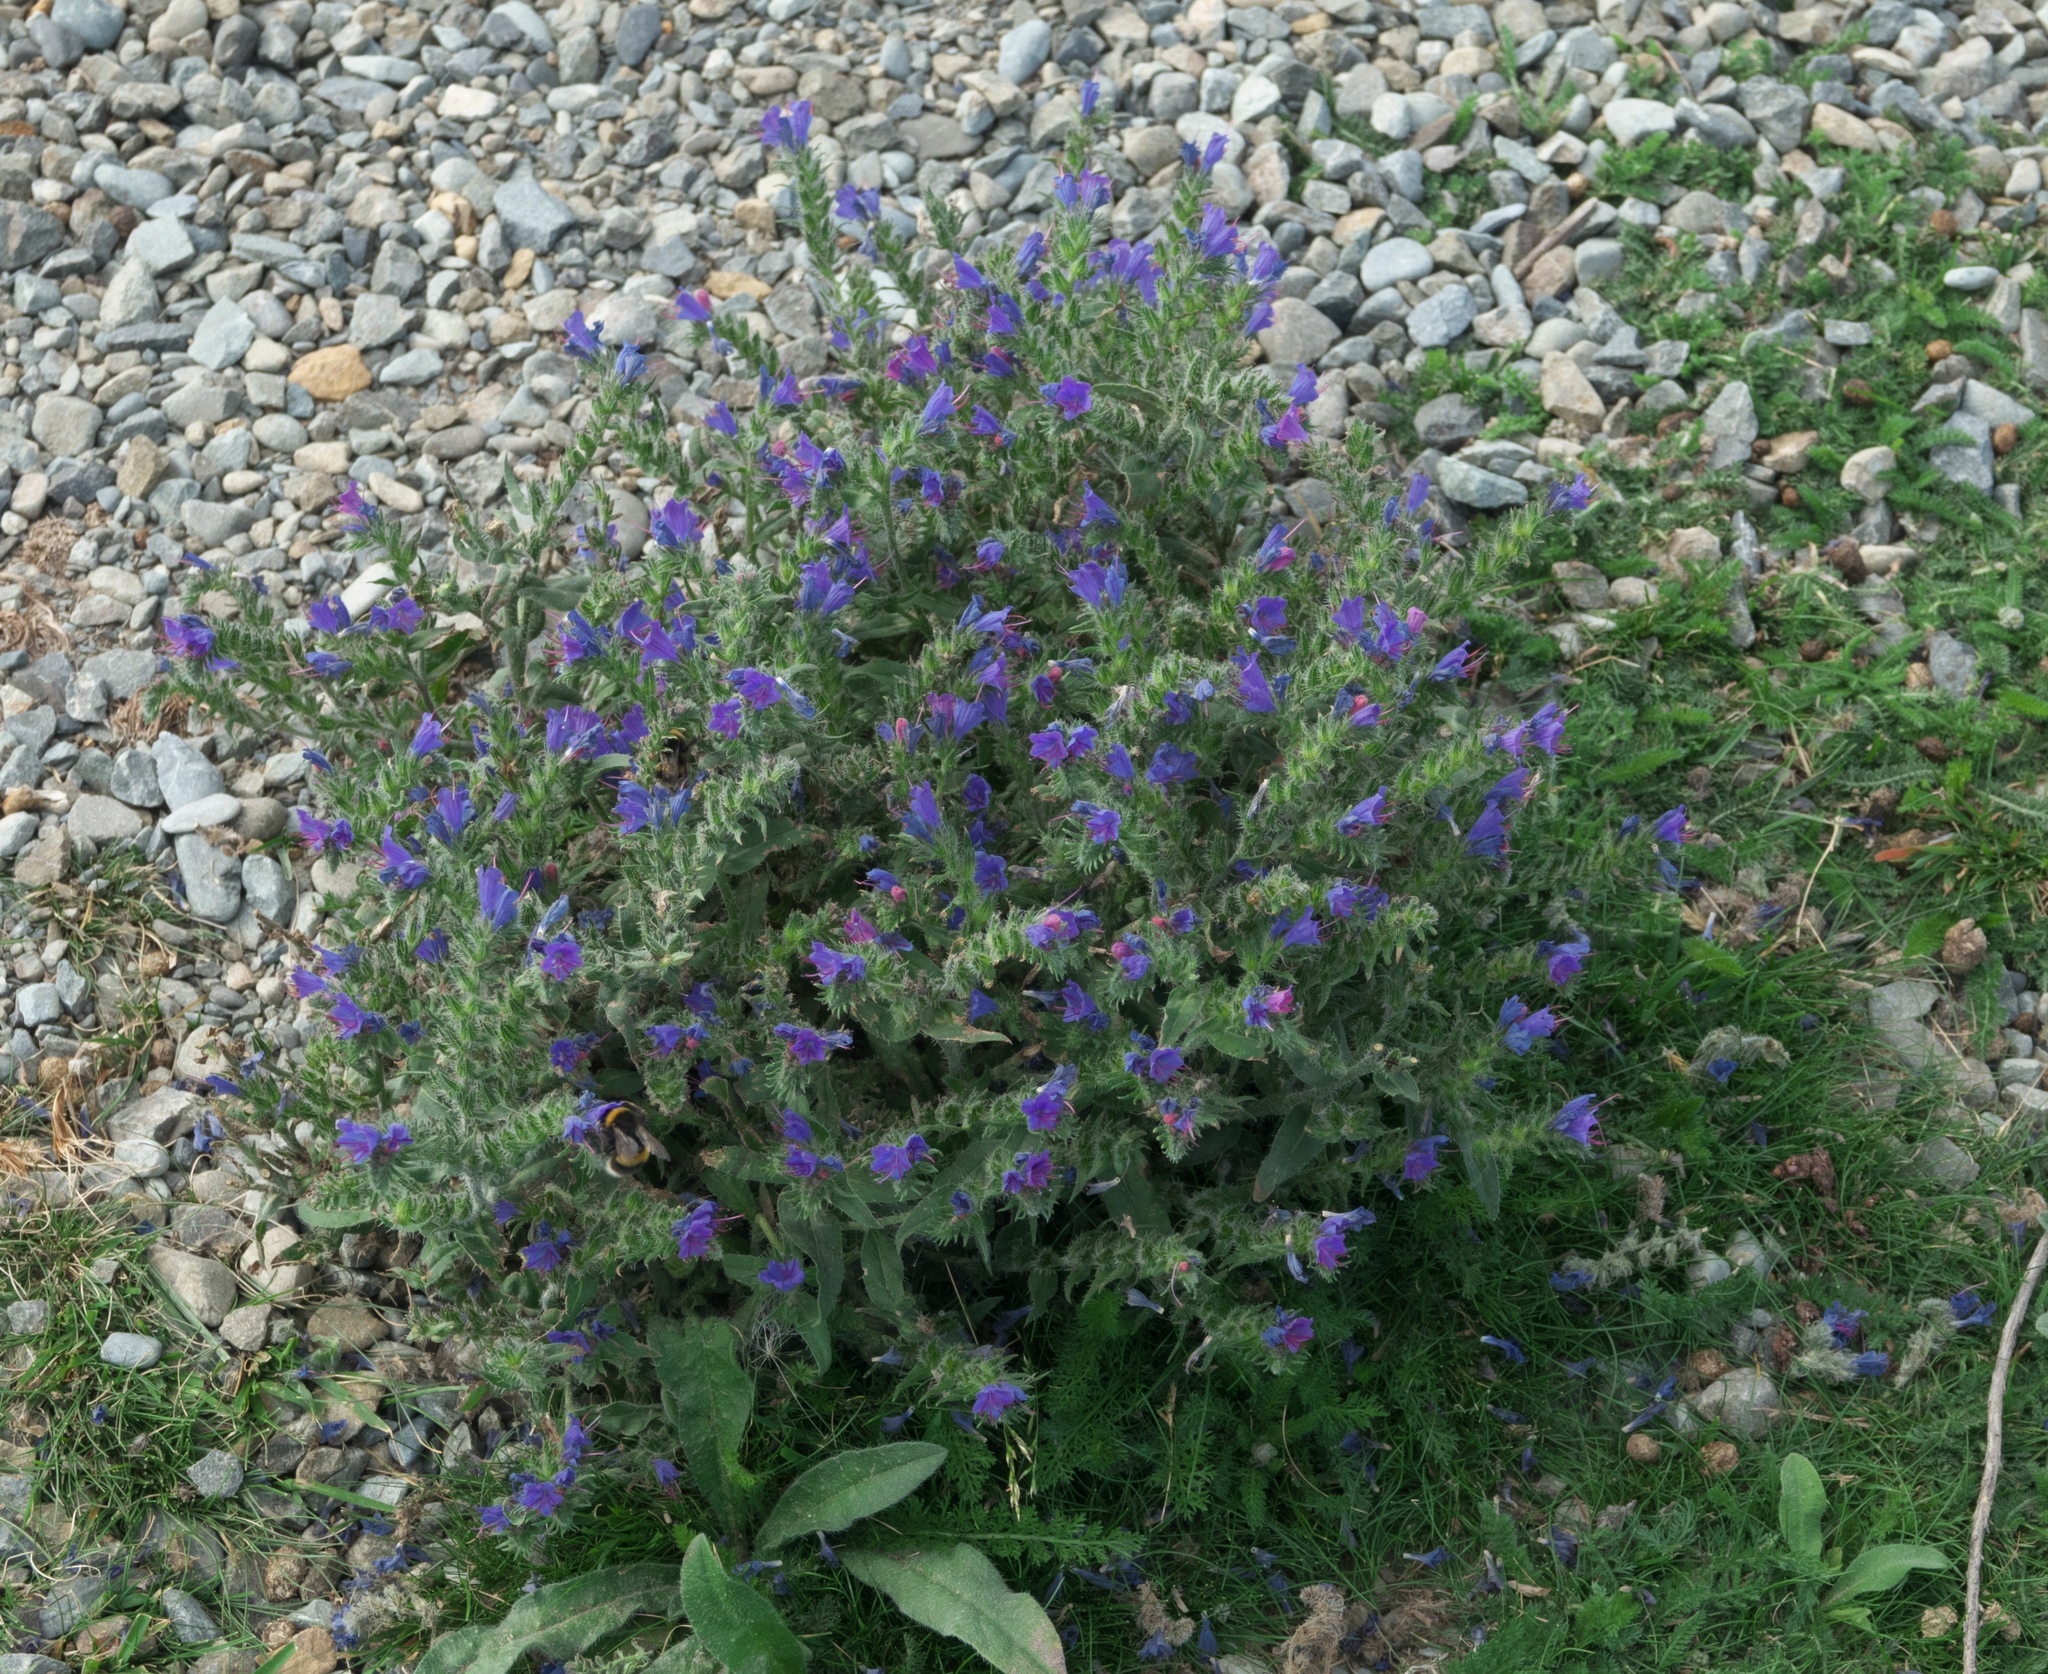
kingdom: Plantae
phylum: Tracheophyta
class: Magnoliopsida
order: Boraginales
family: Boraginaceae
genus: Echium
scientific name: Echium vulgare
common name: Common viper's bugloss
